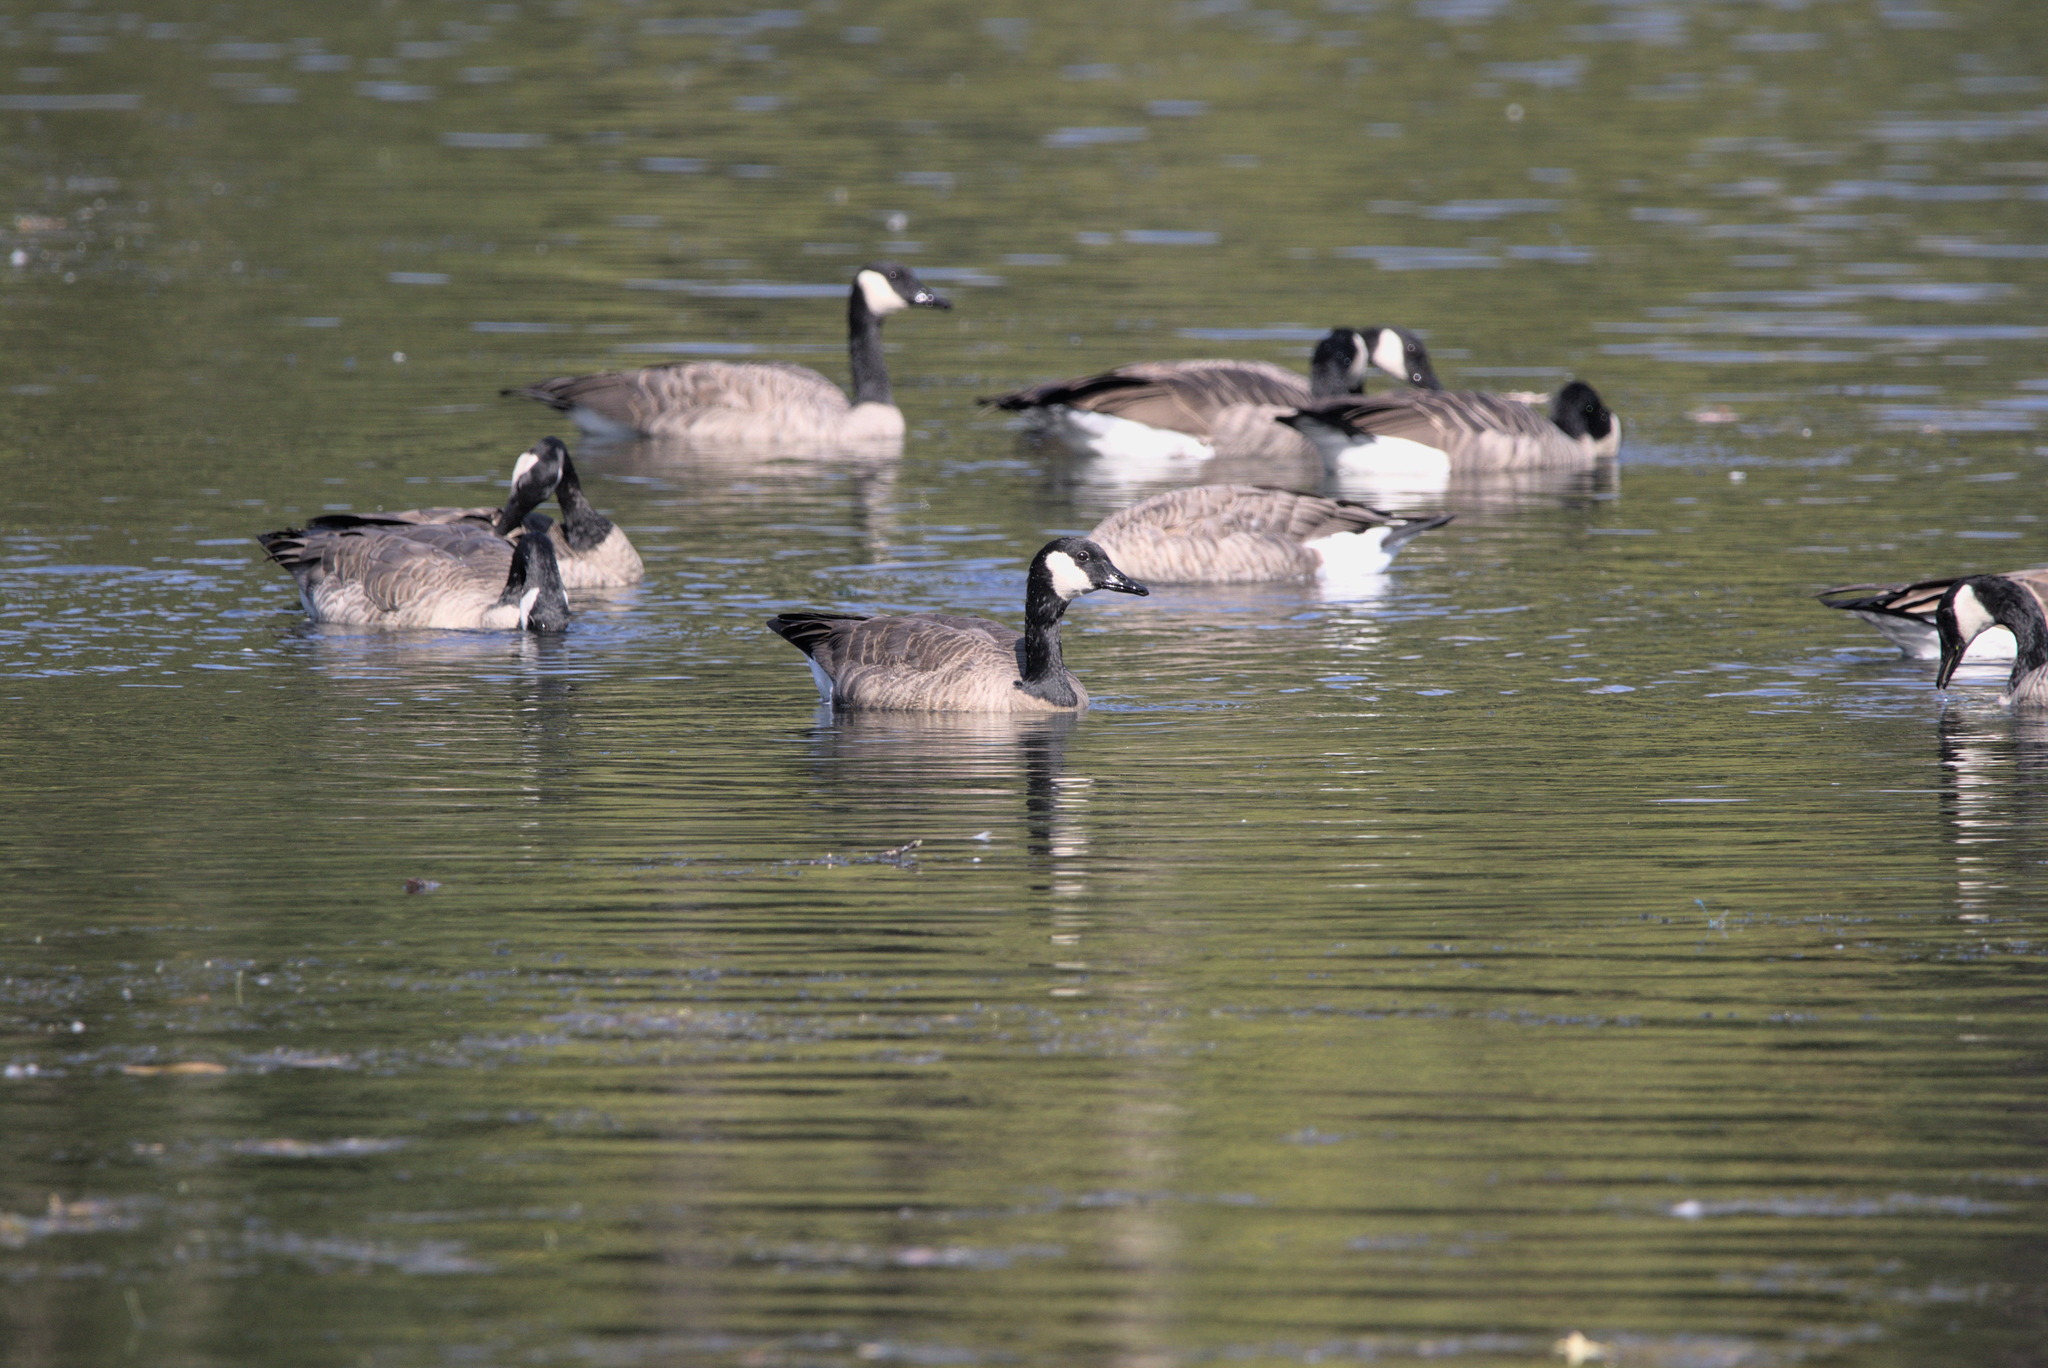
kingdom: Animalia
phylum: Chordata
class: Aves
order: Anseriformes
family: Anatidae
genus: Branta
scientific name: Branta canadensis
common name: Canada goose
